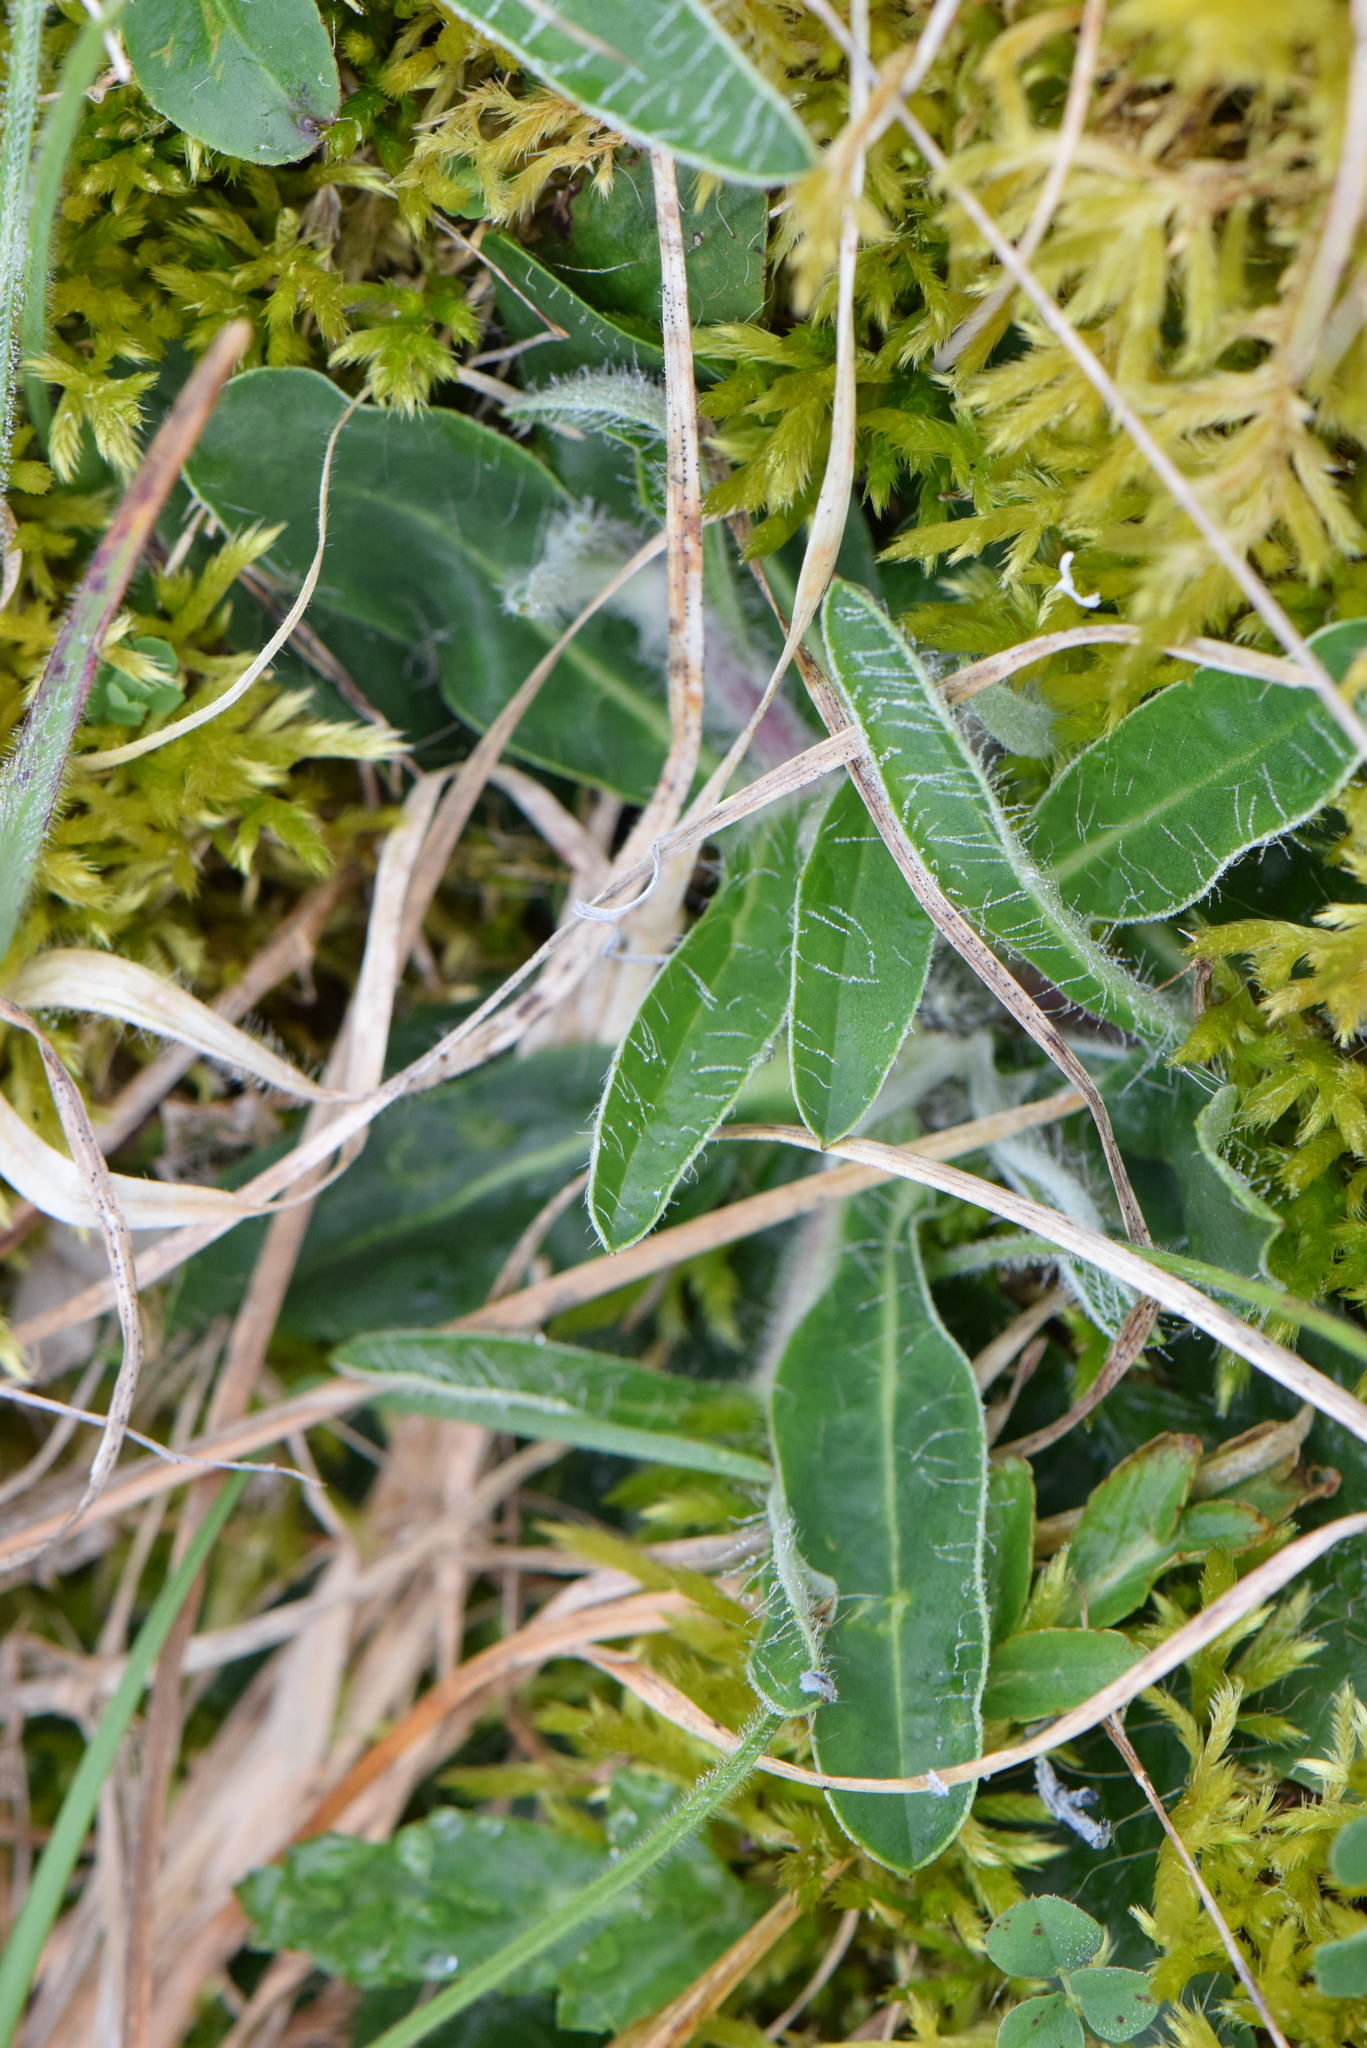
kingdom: Plantae
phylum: Tracheophyta
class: Magnoliopsida
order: Asterales
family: Asteraceae
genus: Pilosella
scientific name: Pilosella officinarum
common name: Mouse-ear hawkweed
